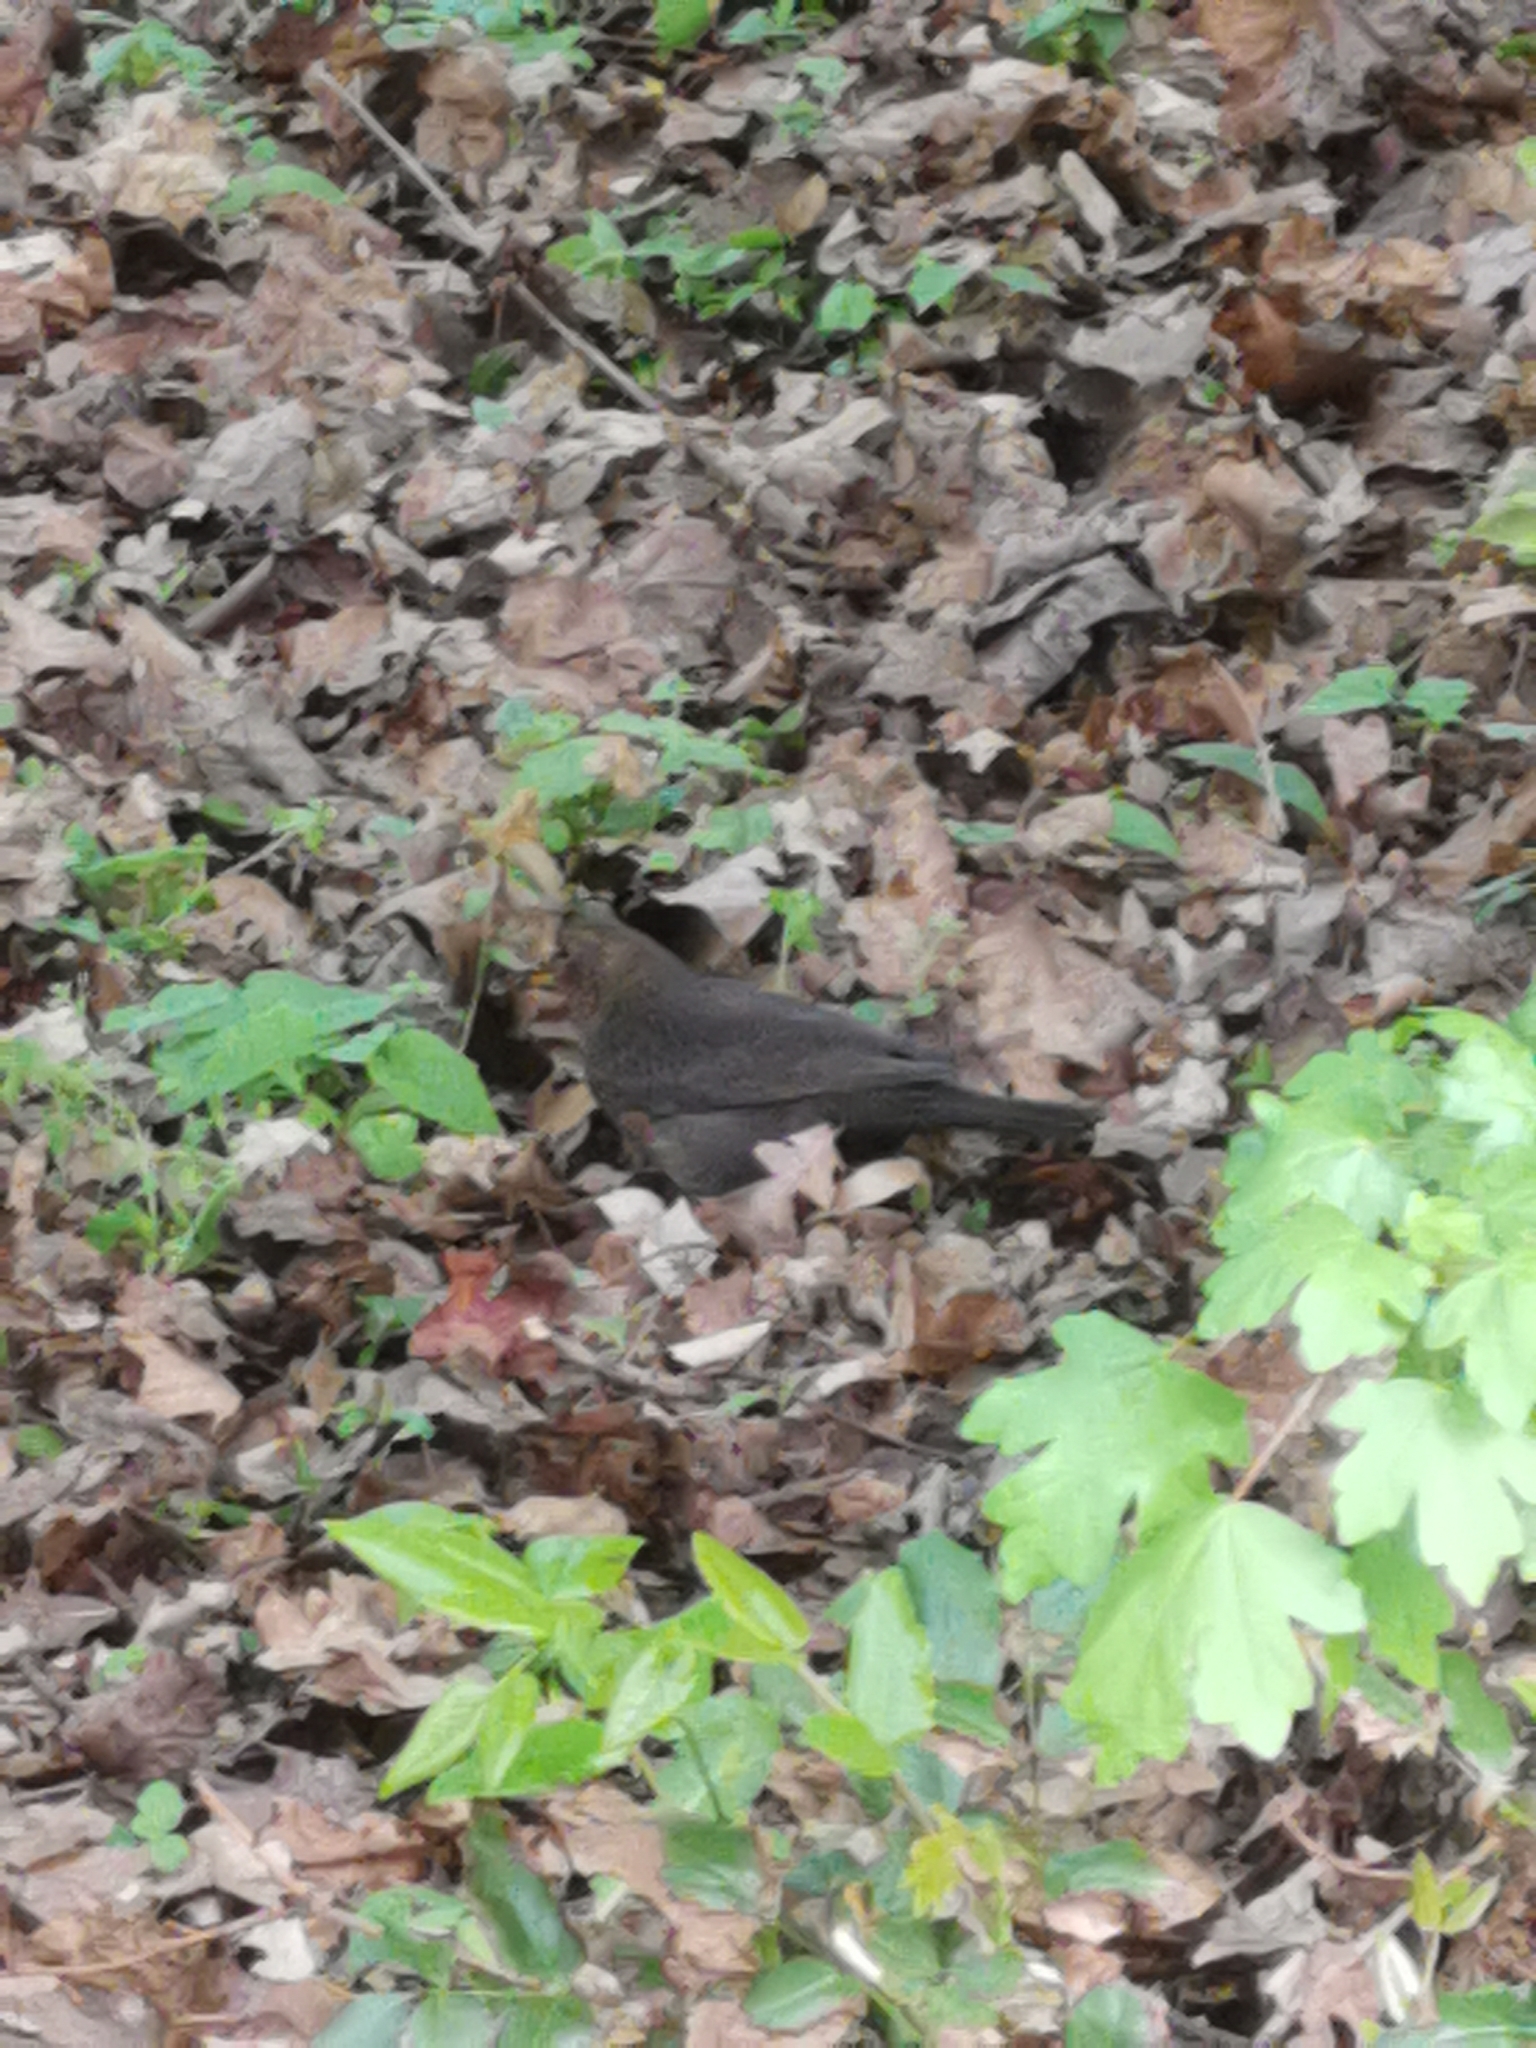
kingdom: Animalia
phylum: Chordata
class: Aves
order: Passeriformes
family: Turdidae
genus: Turdus
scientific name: Turdus merula
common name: Common blackbird
